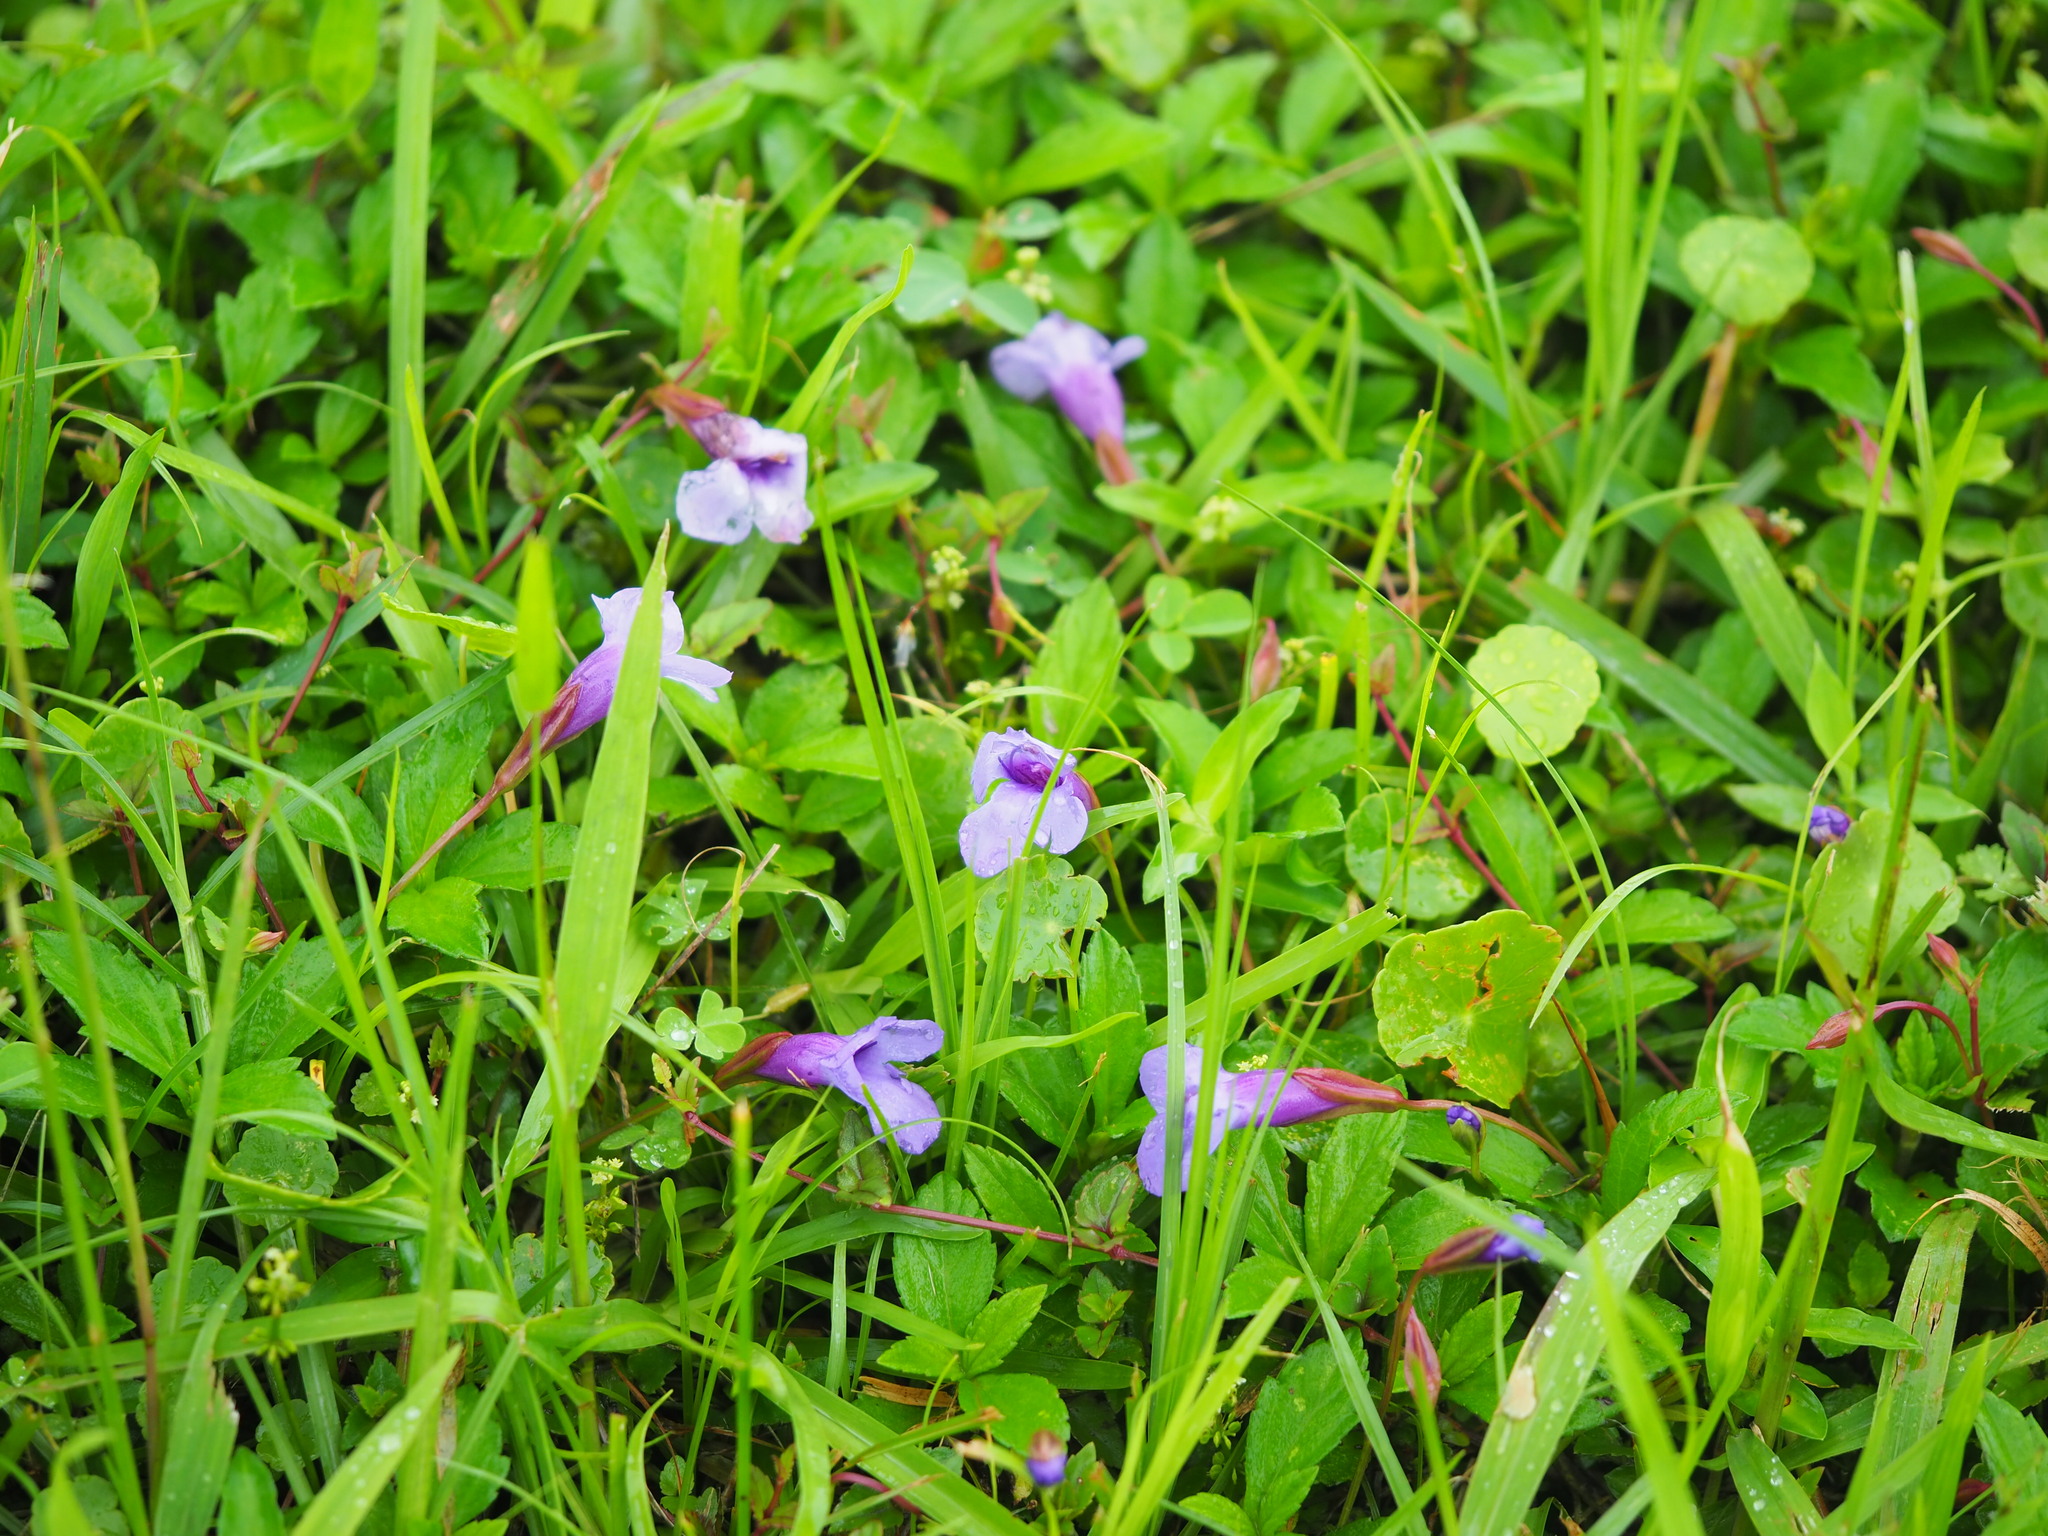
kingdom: Plantae
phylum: Tracheophyta
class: Magnoliopsida
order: Lamiales
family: Linderniaceae
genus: Torenia
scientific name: Torenia concolor
